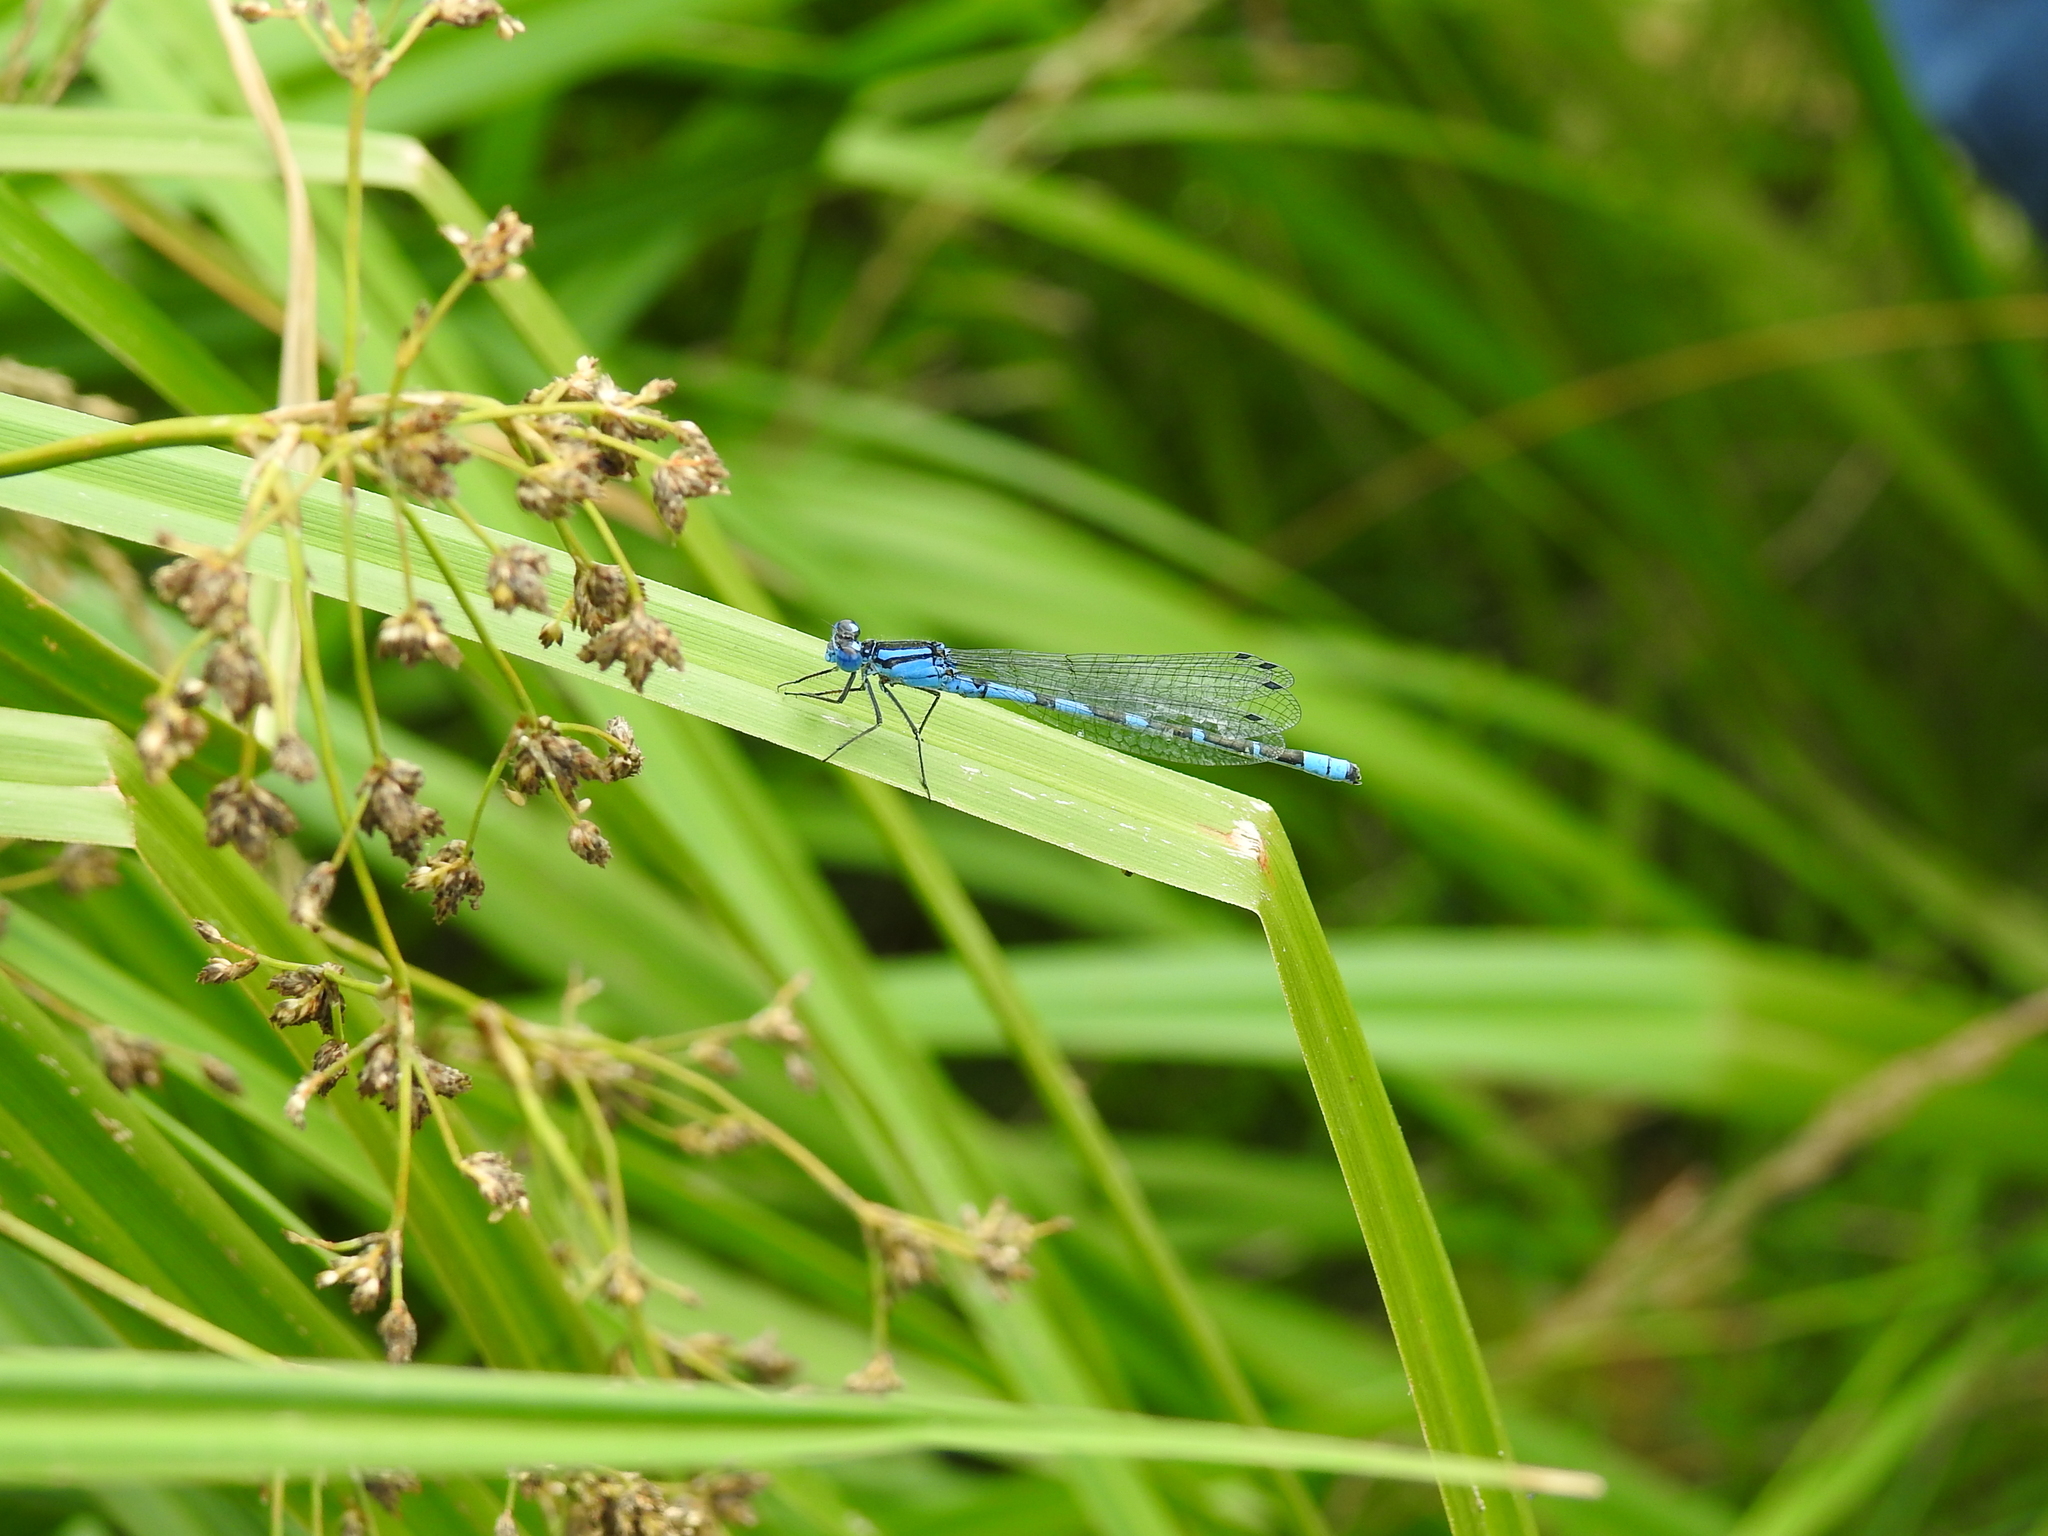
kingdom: Animalia
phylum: Arthropoda
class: Insecta
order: Odonata
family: Coenagrionidae
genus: Enallagma
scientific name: Enallagma cyathigerum
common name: Common blue damselfly
